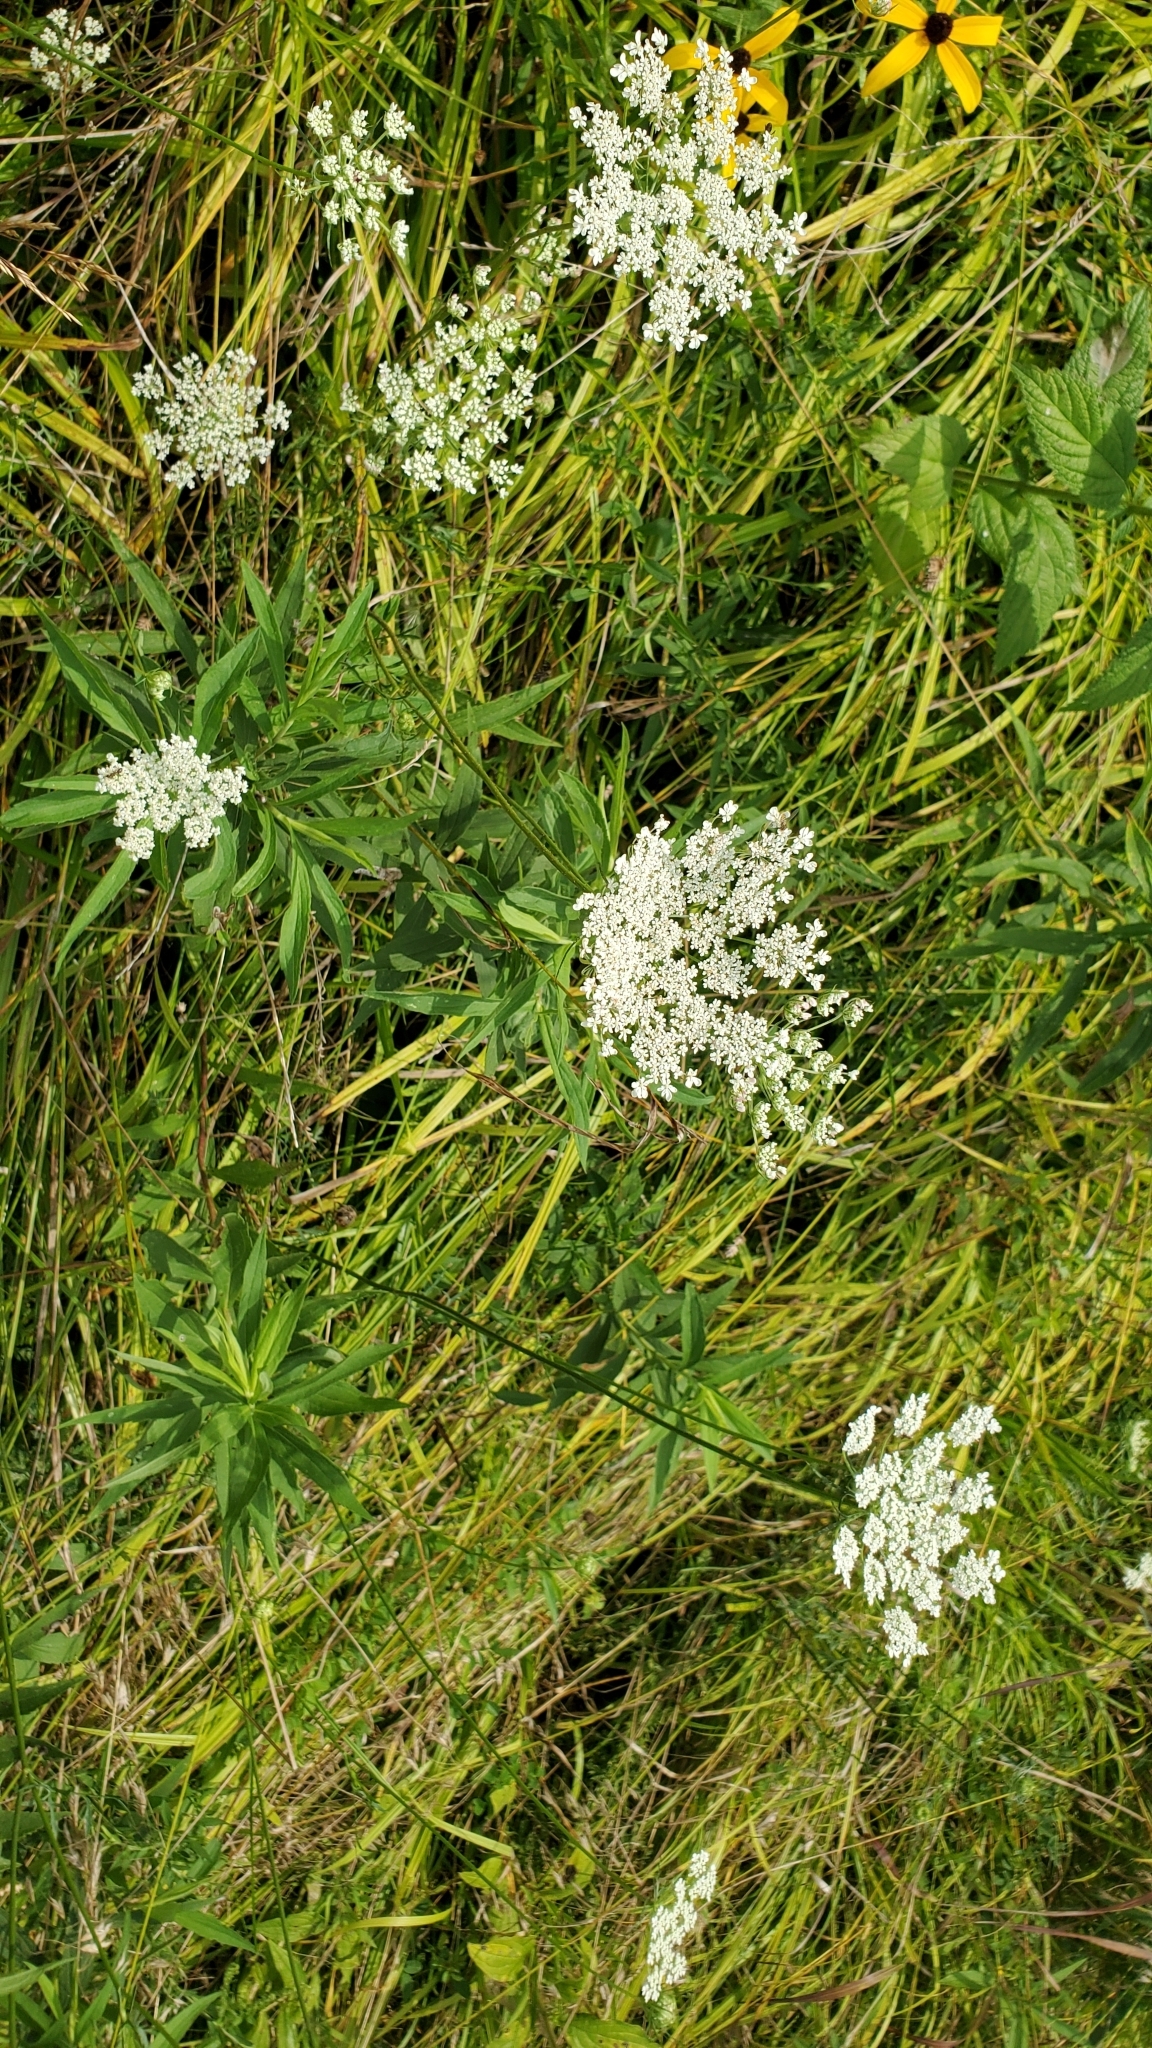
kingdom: Plantae
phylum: Tracheophyta
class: Magnoliopsida
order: Apiales
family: Apiaceae
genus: Daucus
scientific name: Daucus carota
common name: Wild carrot
